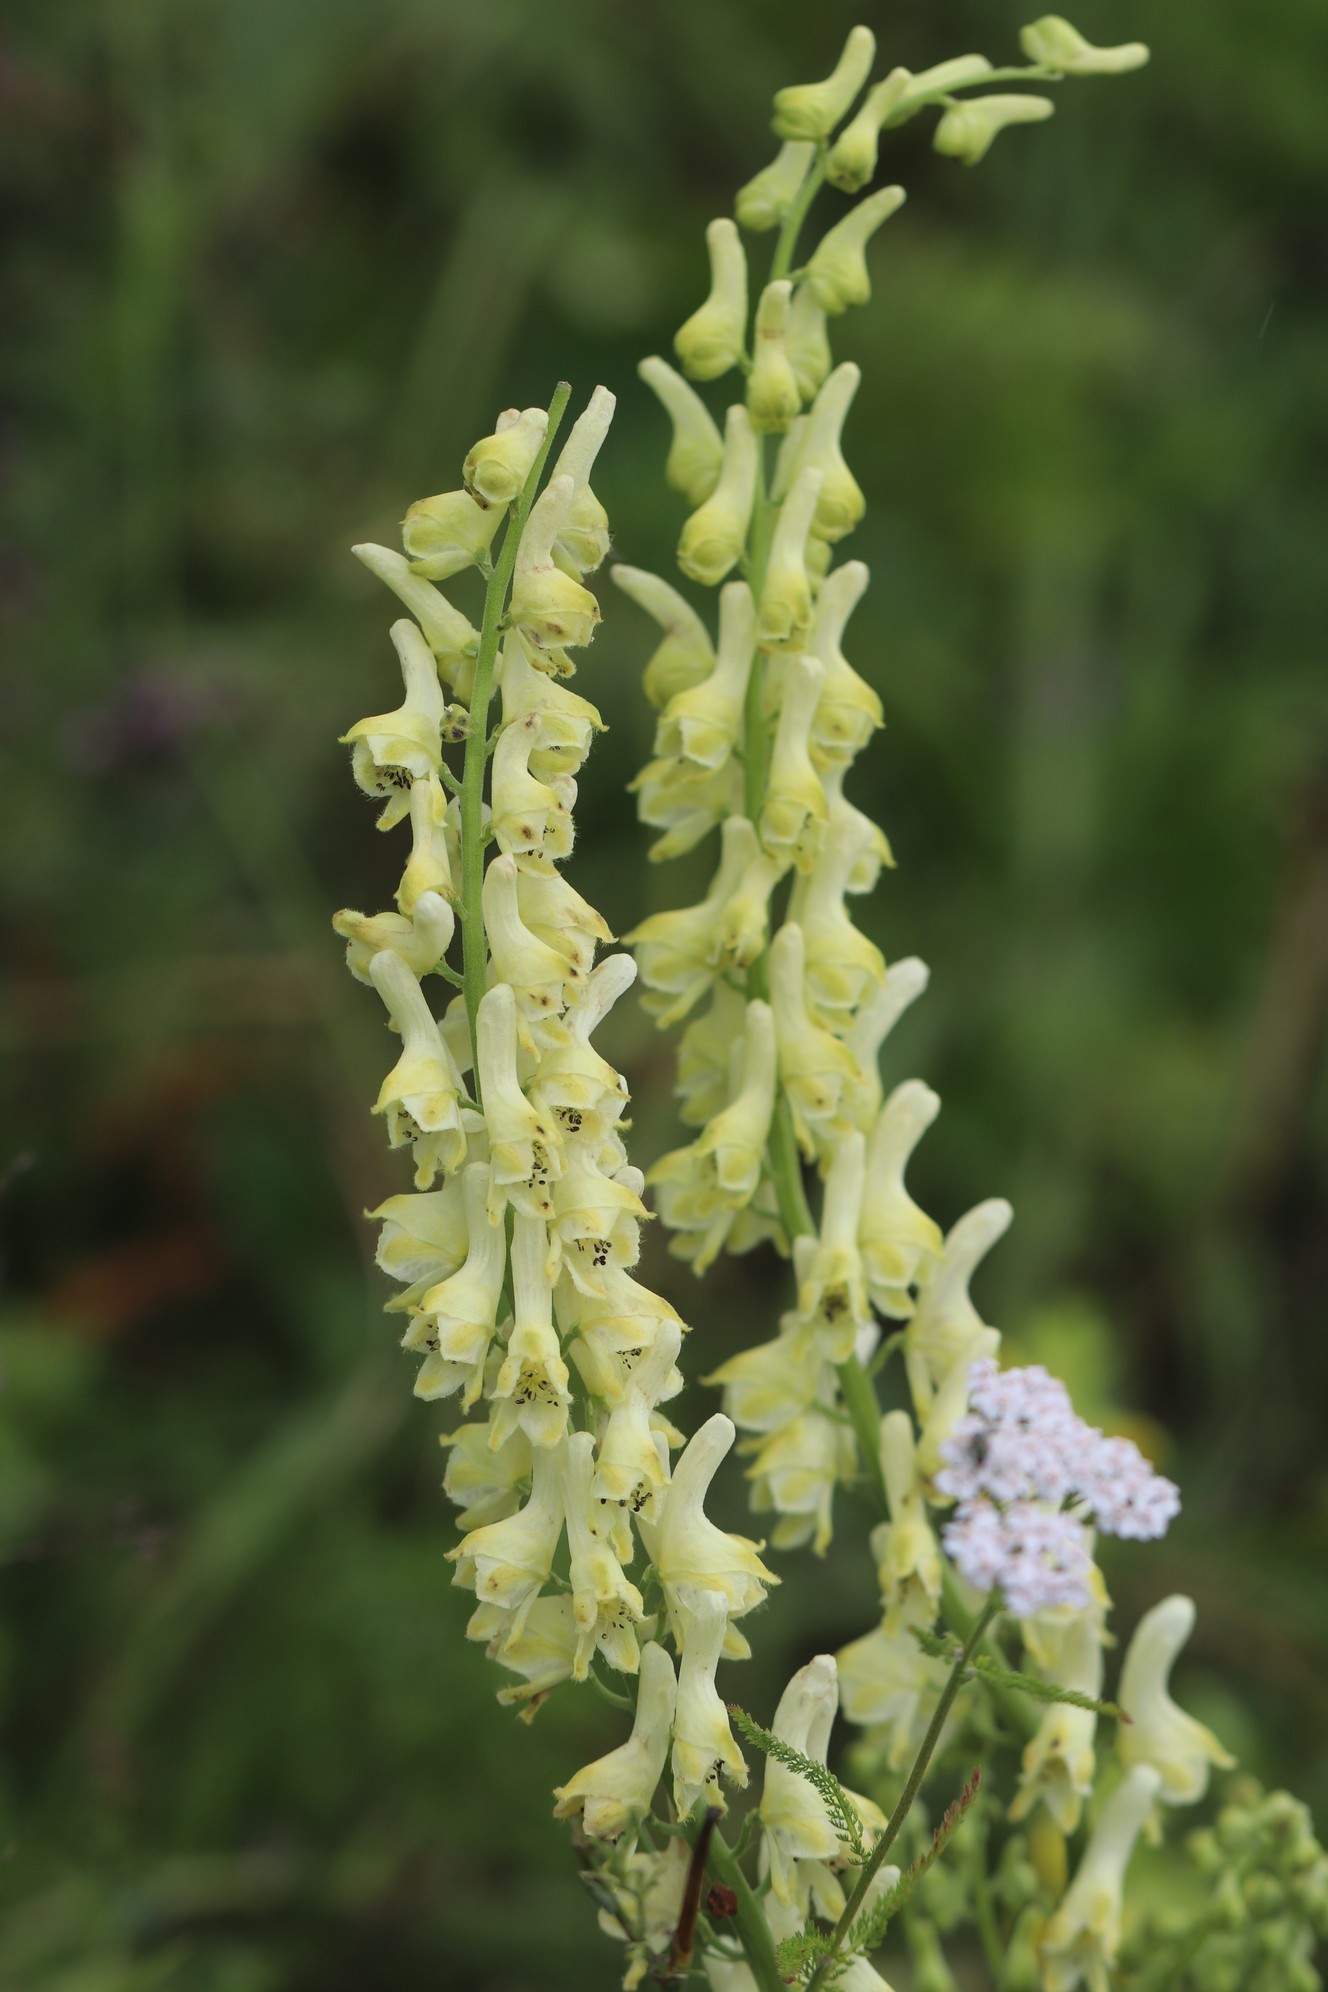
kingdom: Plantae
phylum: Tracheophyta
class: Magnoliopsida
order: Ranunculales
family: Ranunculaceae
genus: Aconitum
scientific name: Aconitum barbatum
